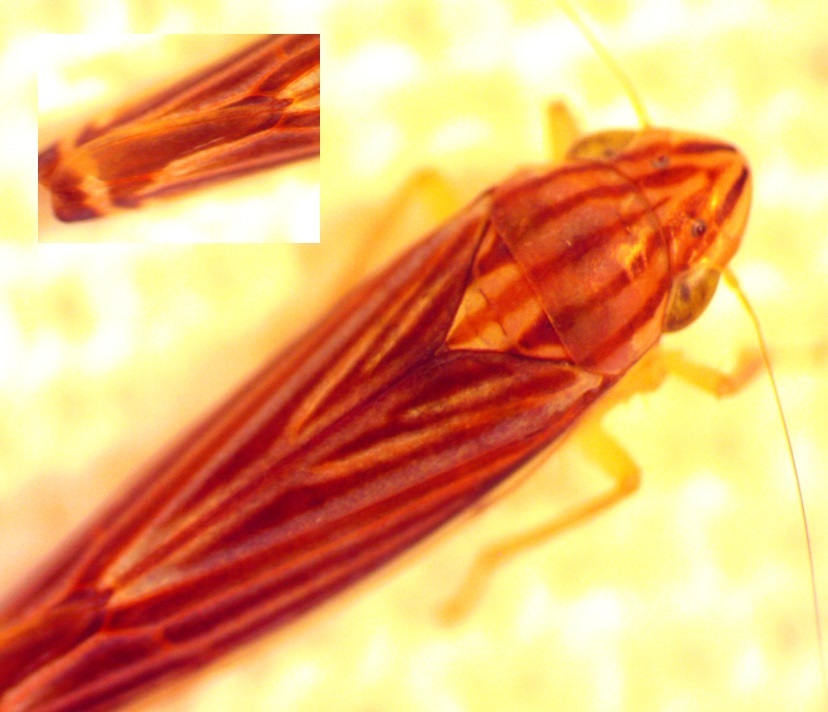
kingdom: Animalia
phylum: Arthropoda
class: Insecta
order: Hemiptera
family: Cicadellidae
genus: Sibovia
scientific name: Sibovia occatoria
